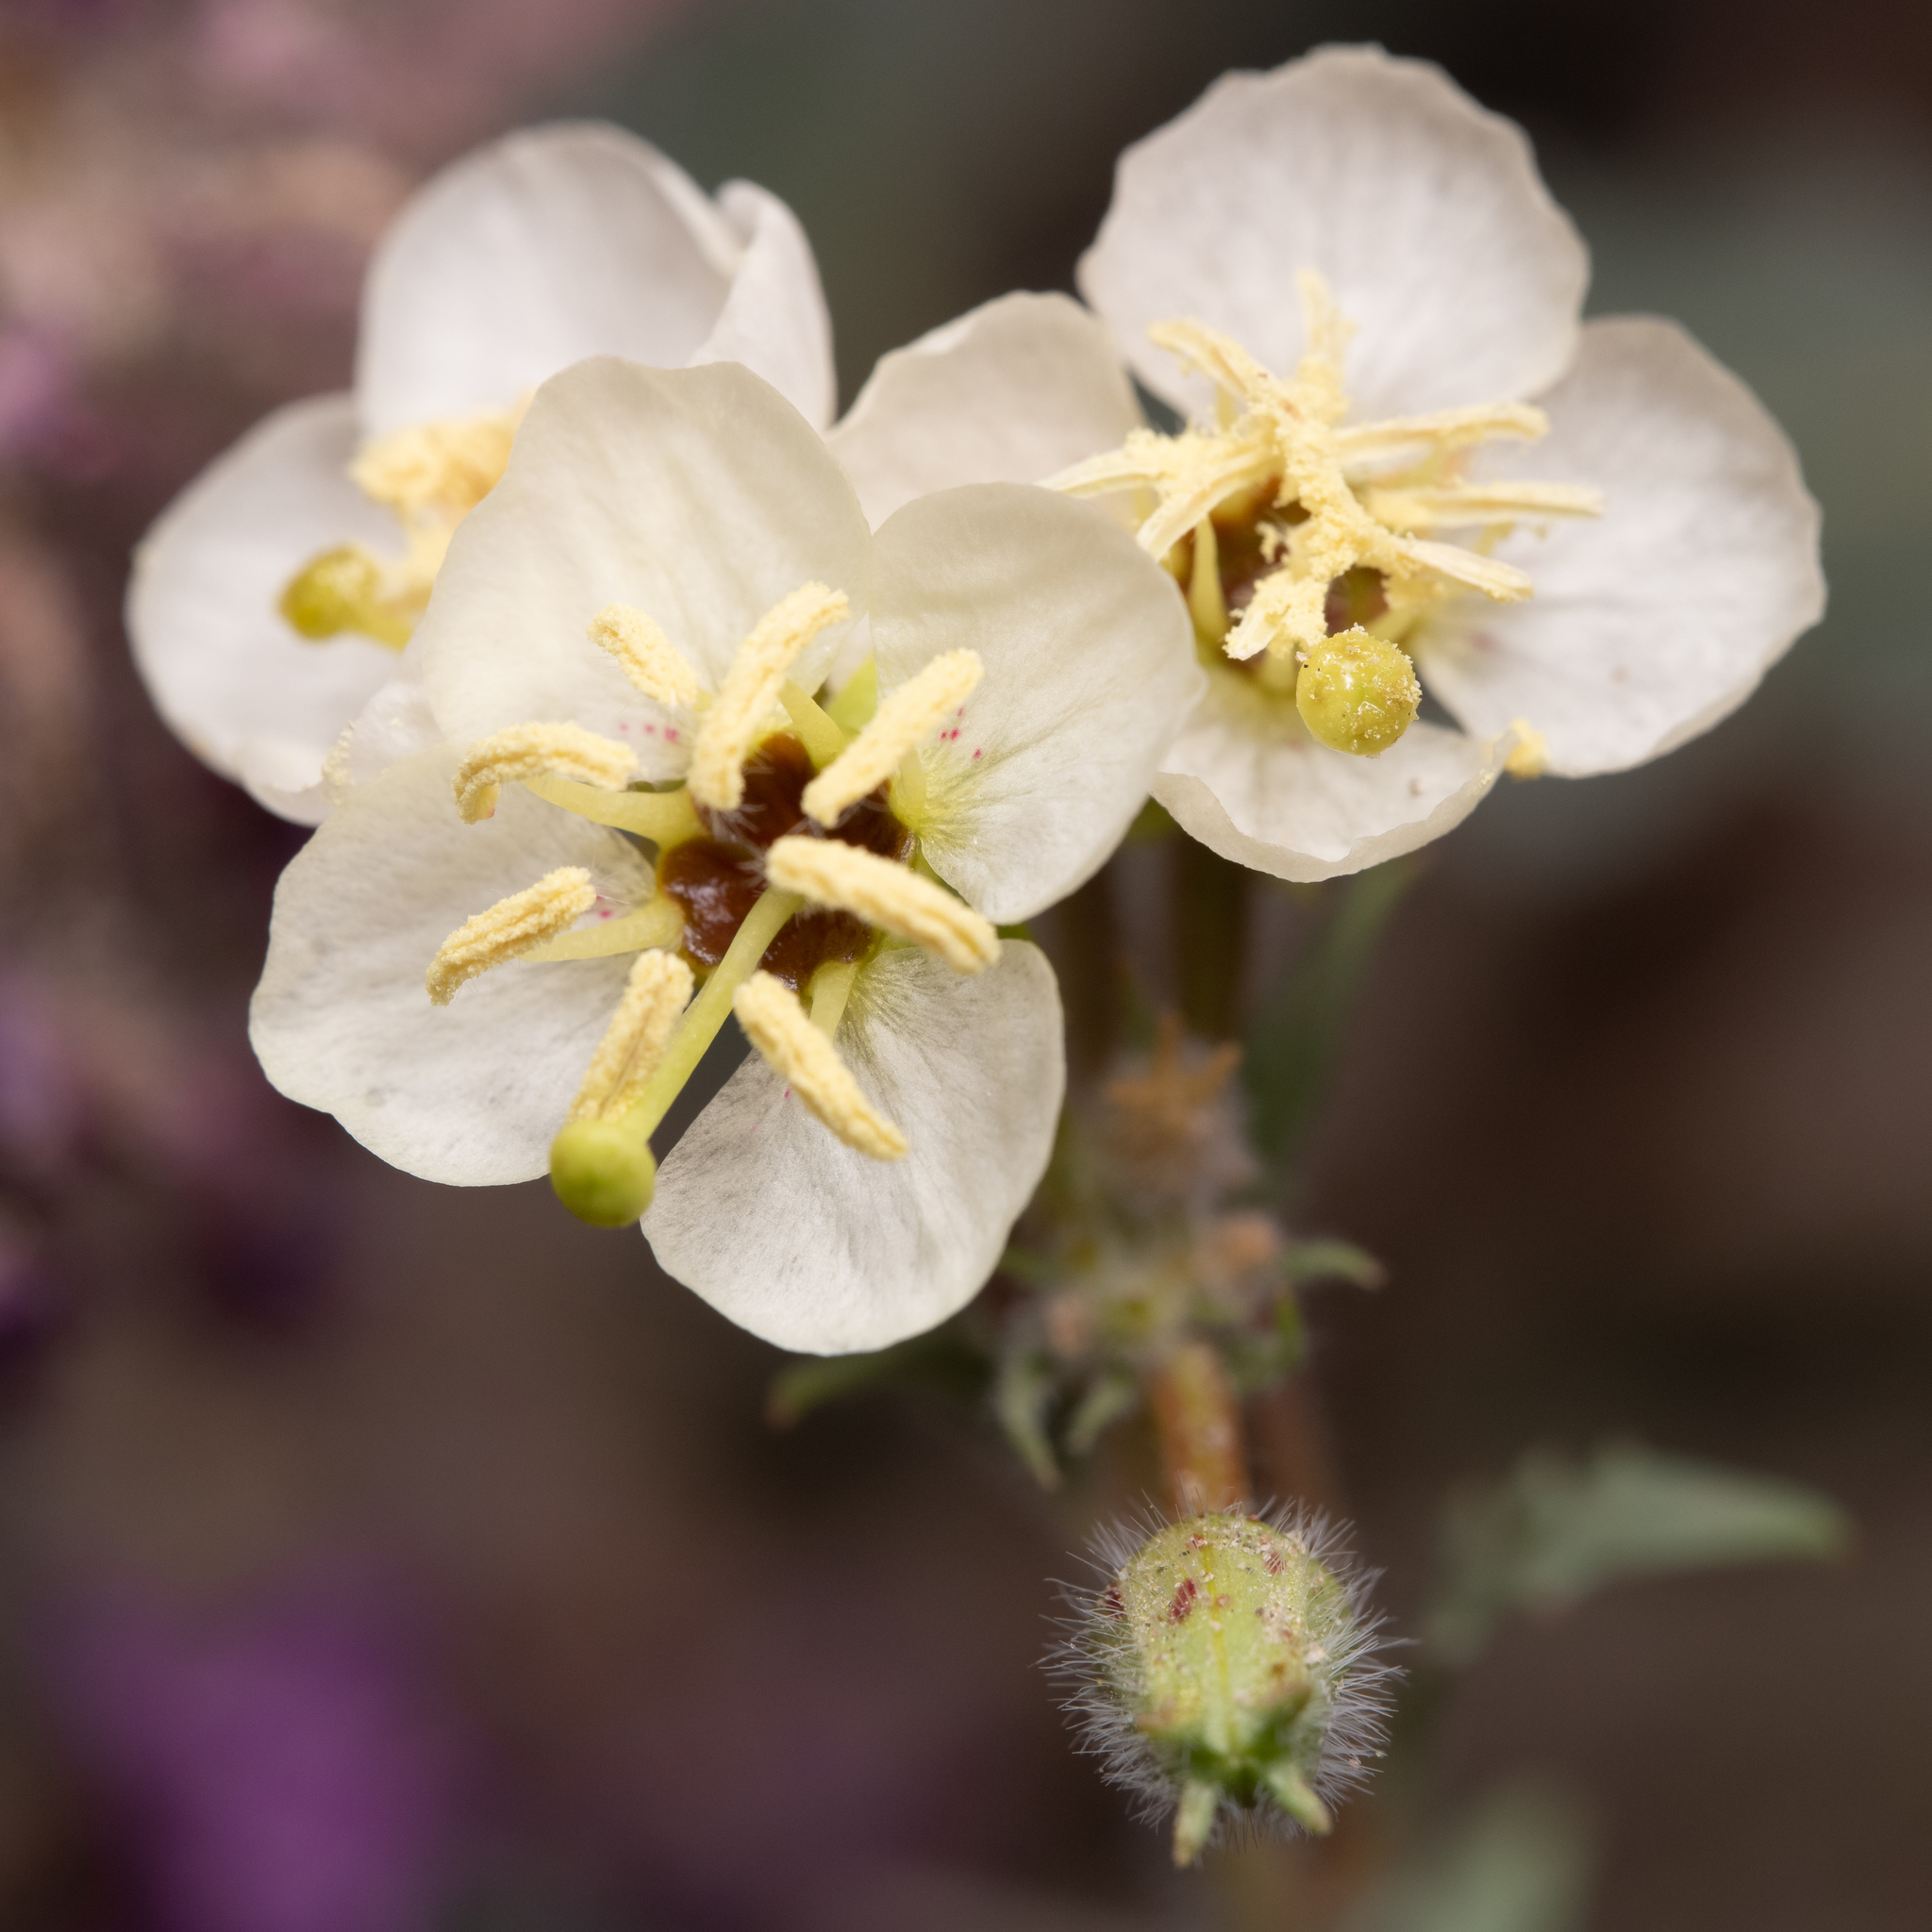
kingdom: Plantae
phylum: Tracheophyta
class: Magnoliopsida
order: Myrtales
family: Onagraceae
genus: Chylismia
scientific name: Chylismia claviformis
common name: Browneyes
